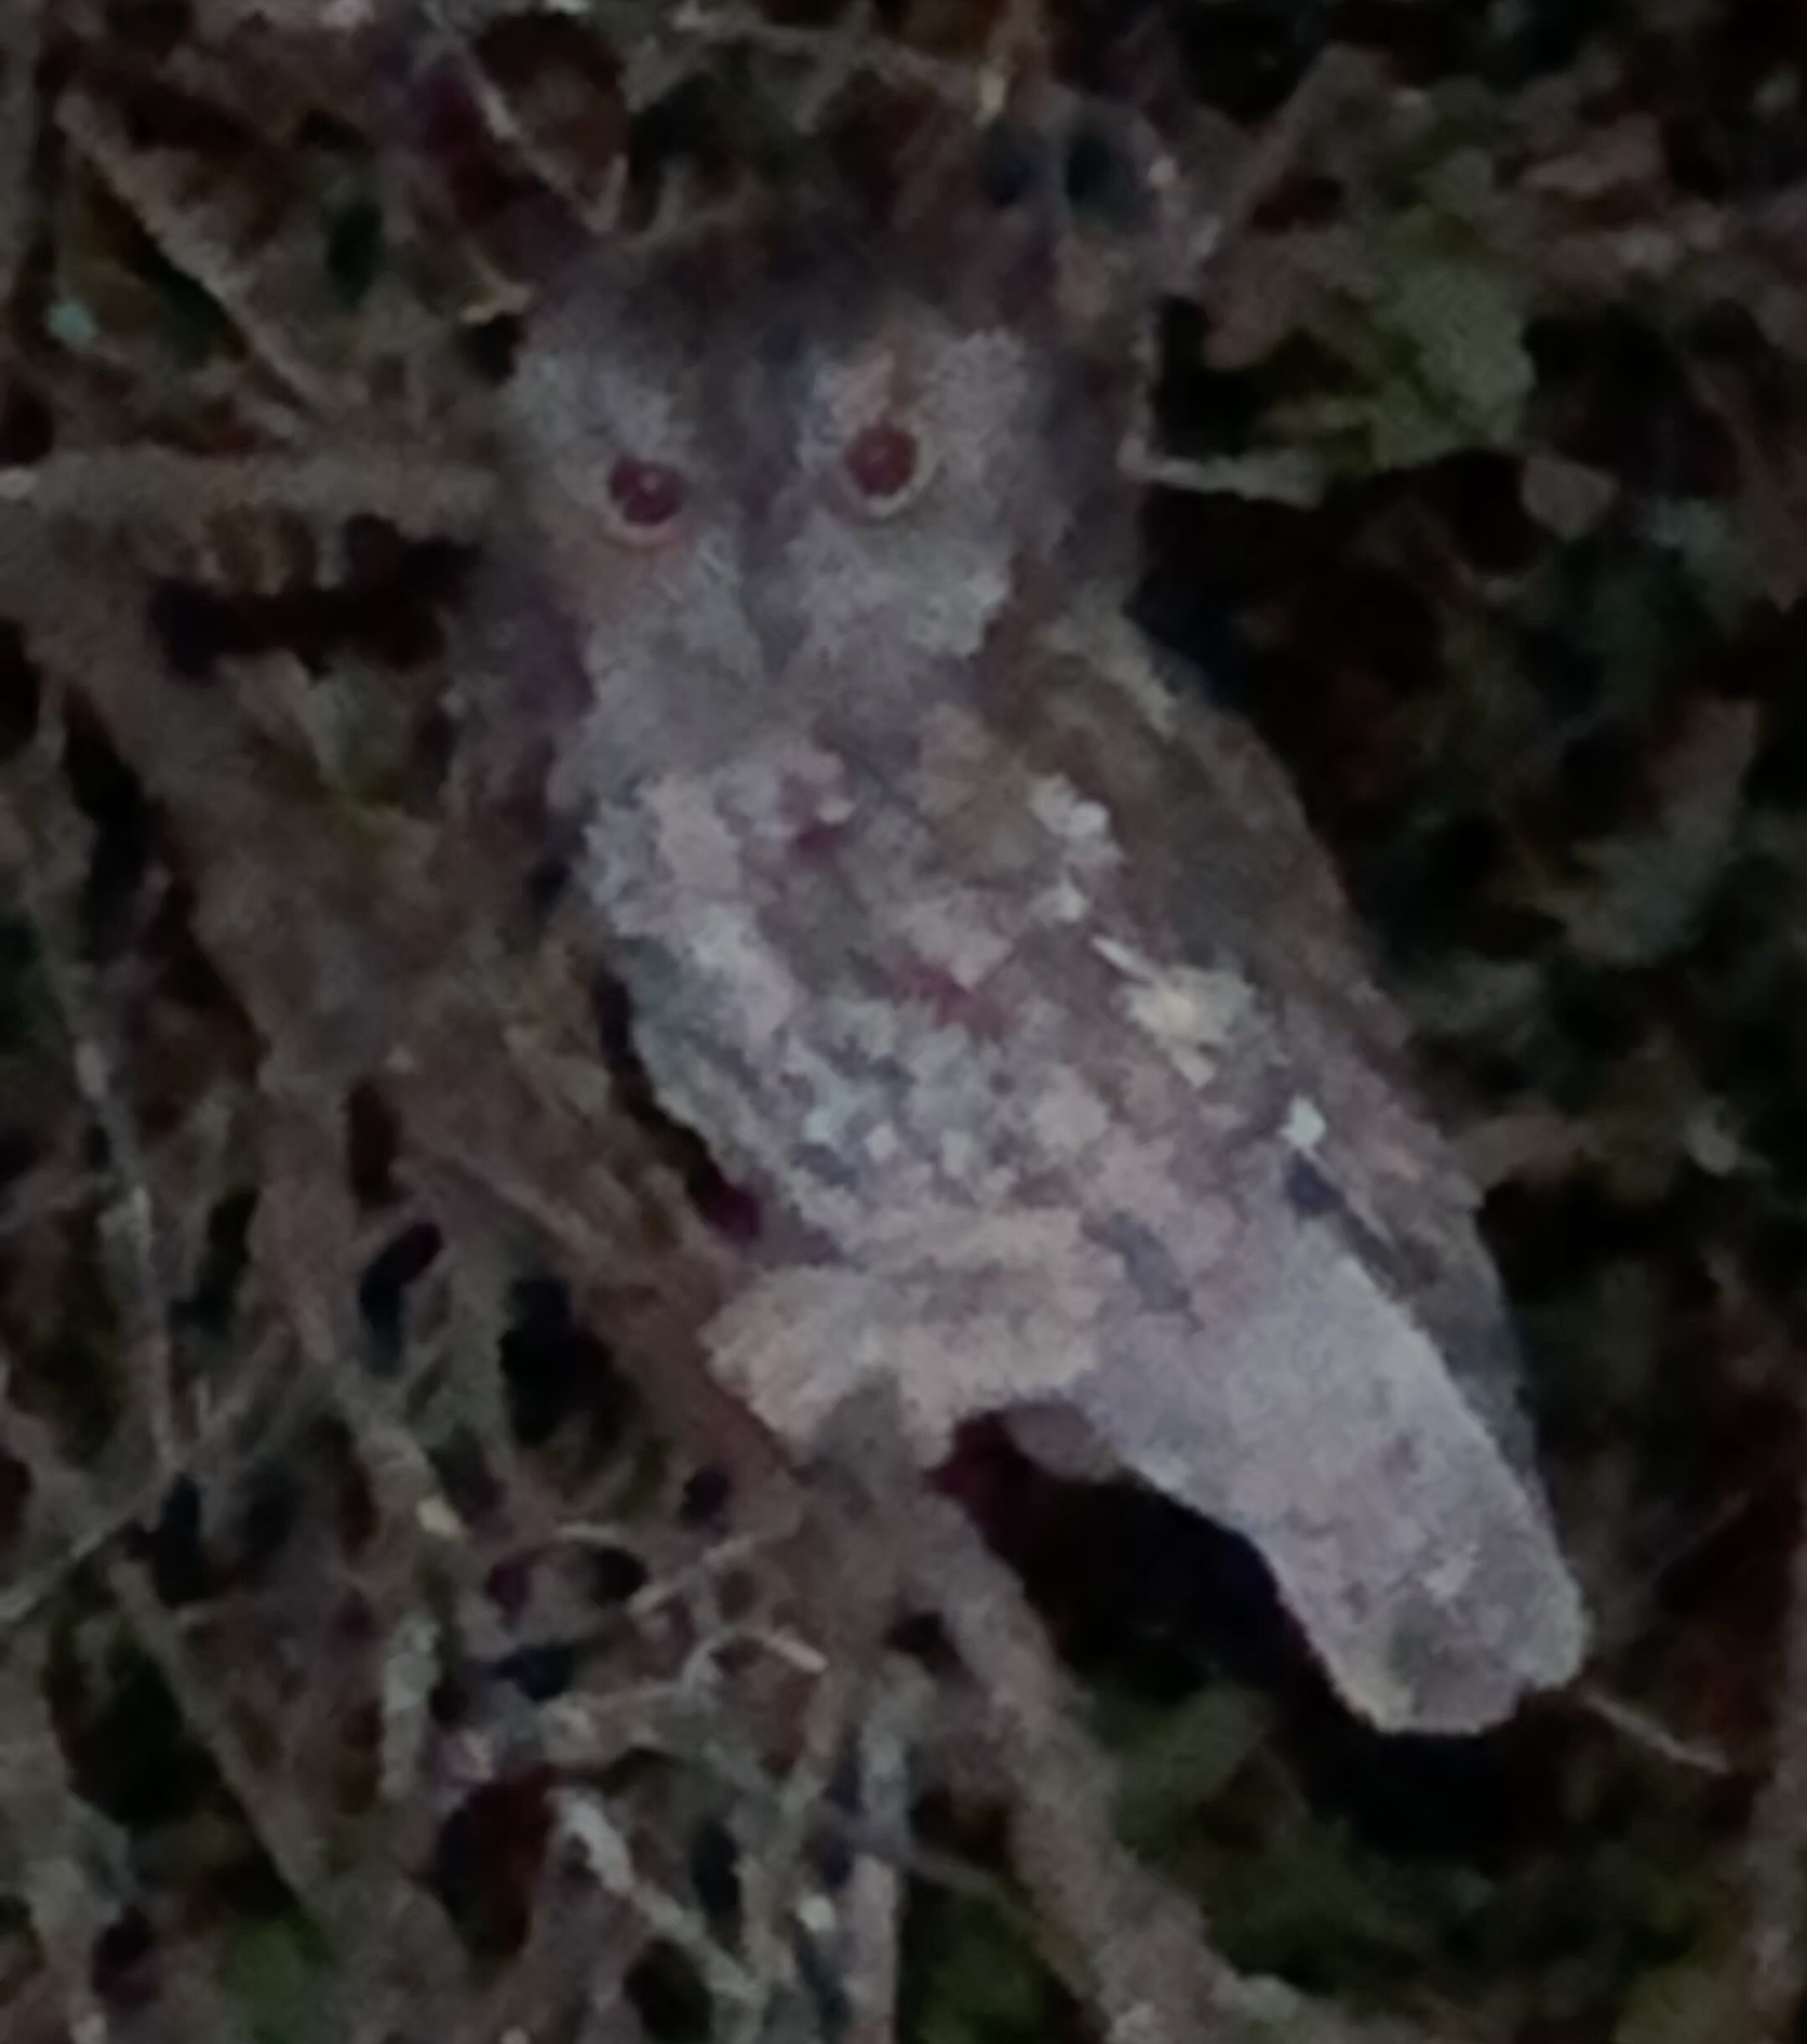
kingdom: Animalia
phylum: Chordata
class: Aves
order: Strigiformes
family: Strigidae
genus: Megascops
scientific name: Megascops asio
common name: Eastern screech-owl
